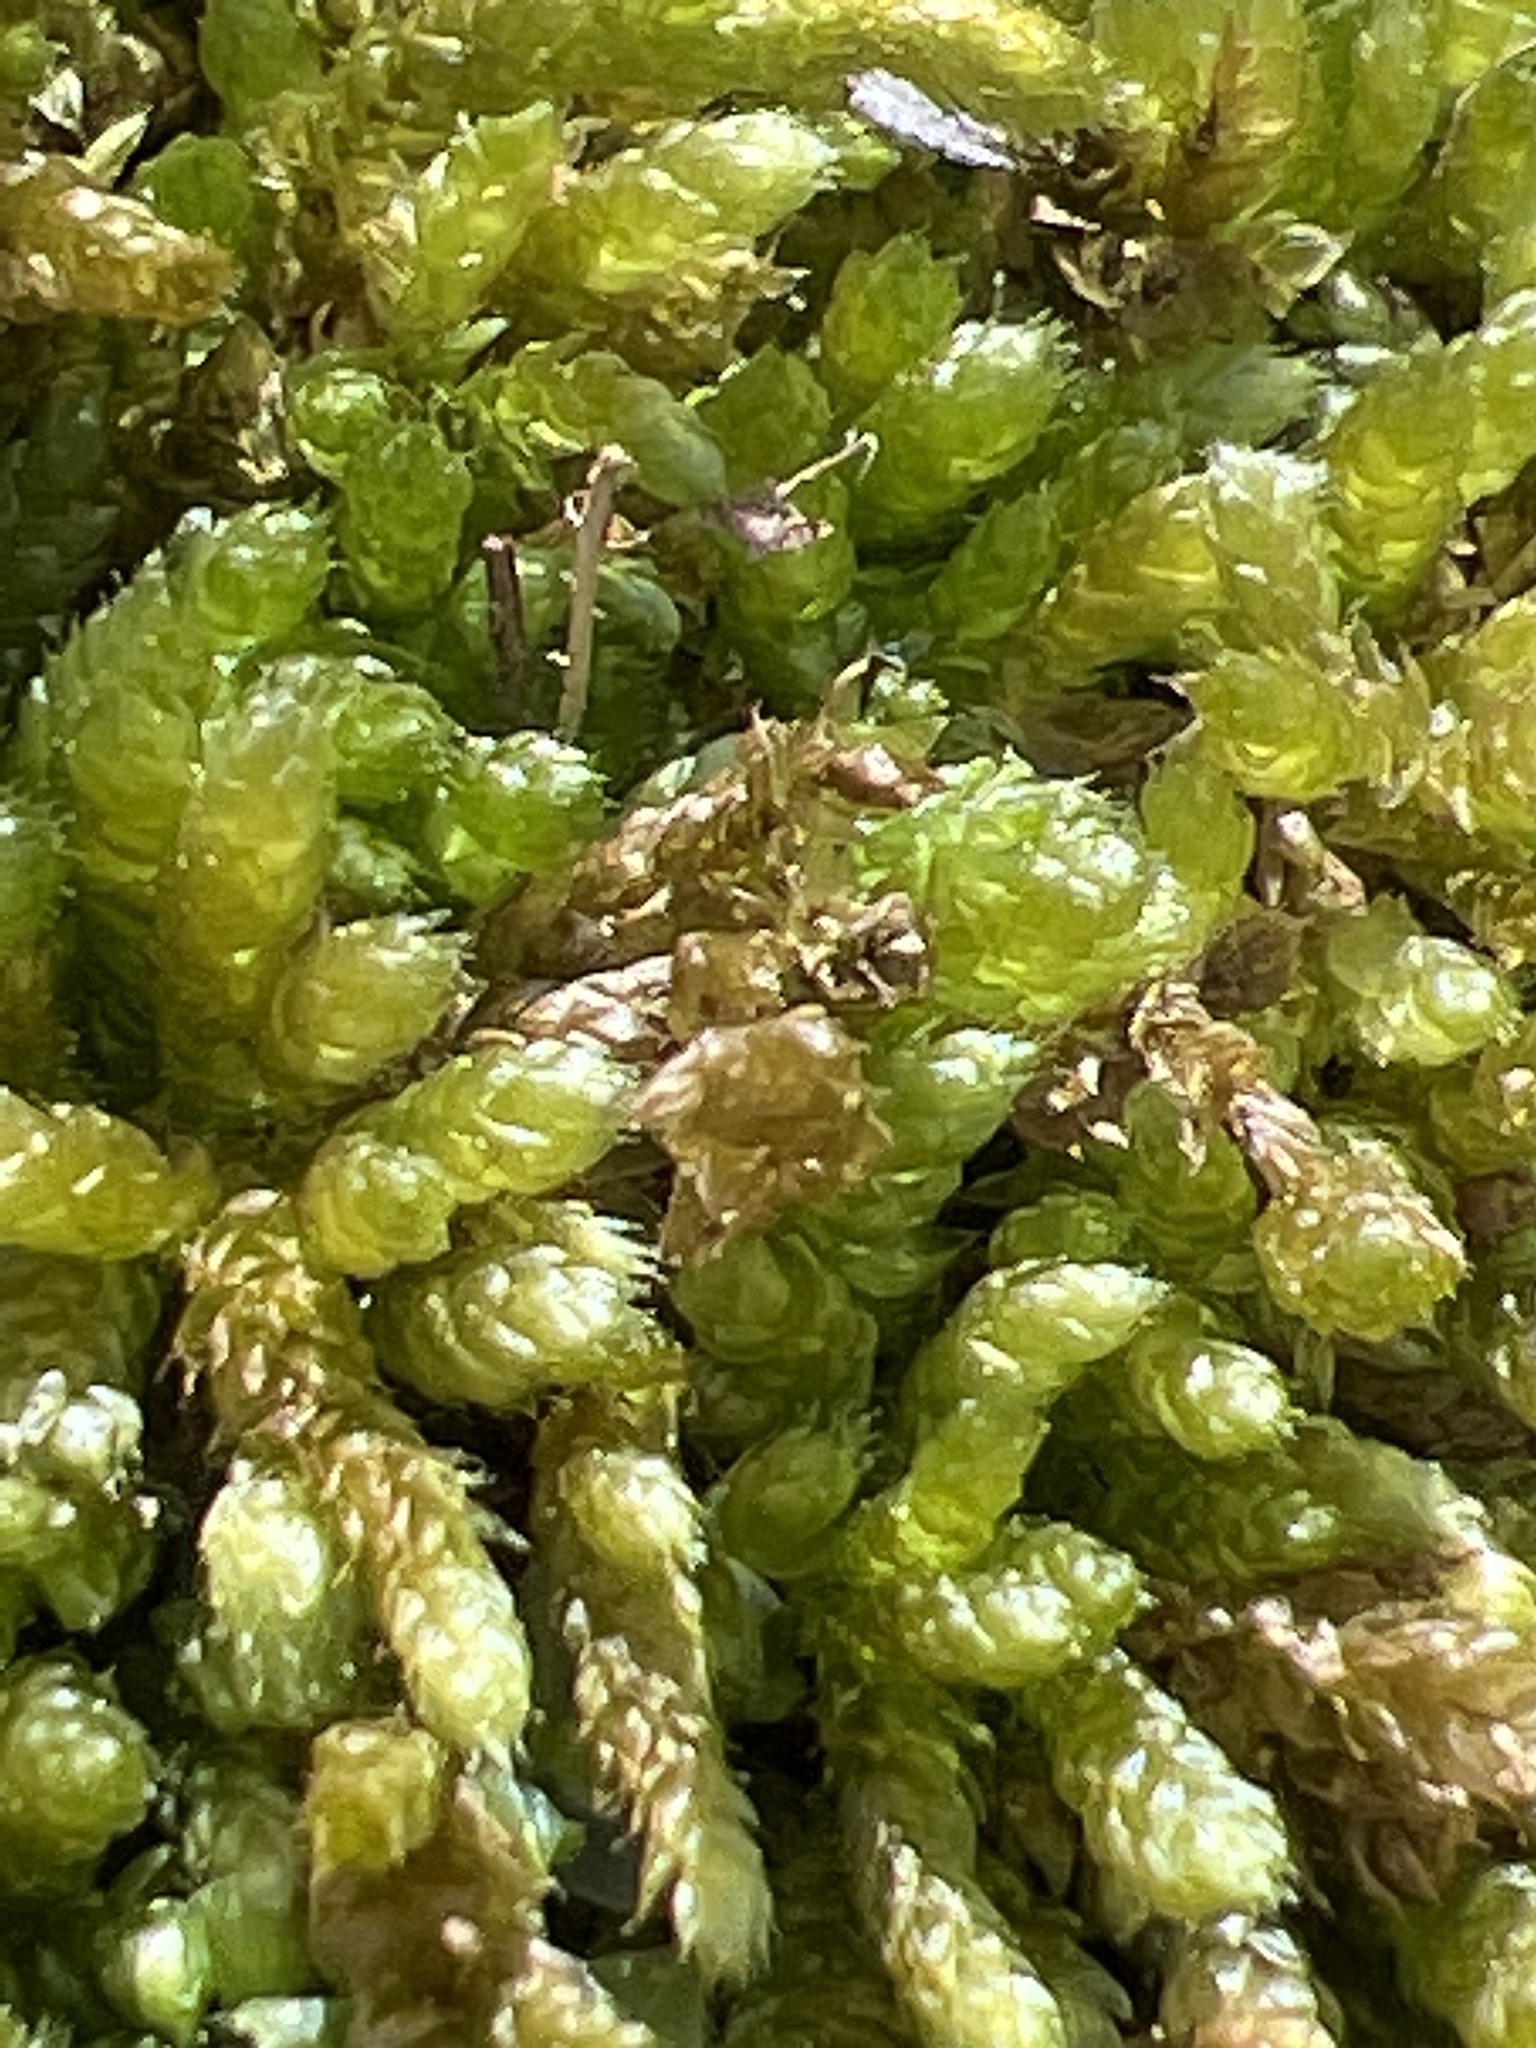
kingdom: Plantae
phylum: Bryophyta
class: Bryopsida
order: Hypnales
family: Brachytheciaceae
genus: Bryoandersonia
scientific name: Bryoandersonia illecebra
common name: Spoon-leaved moss
